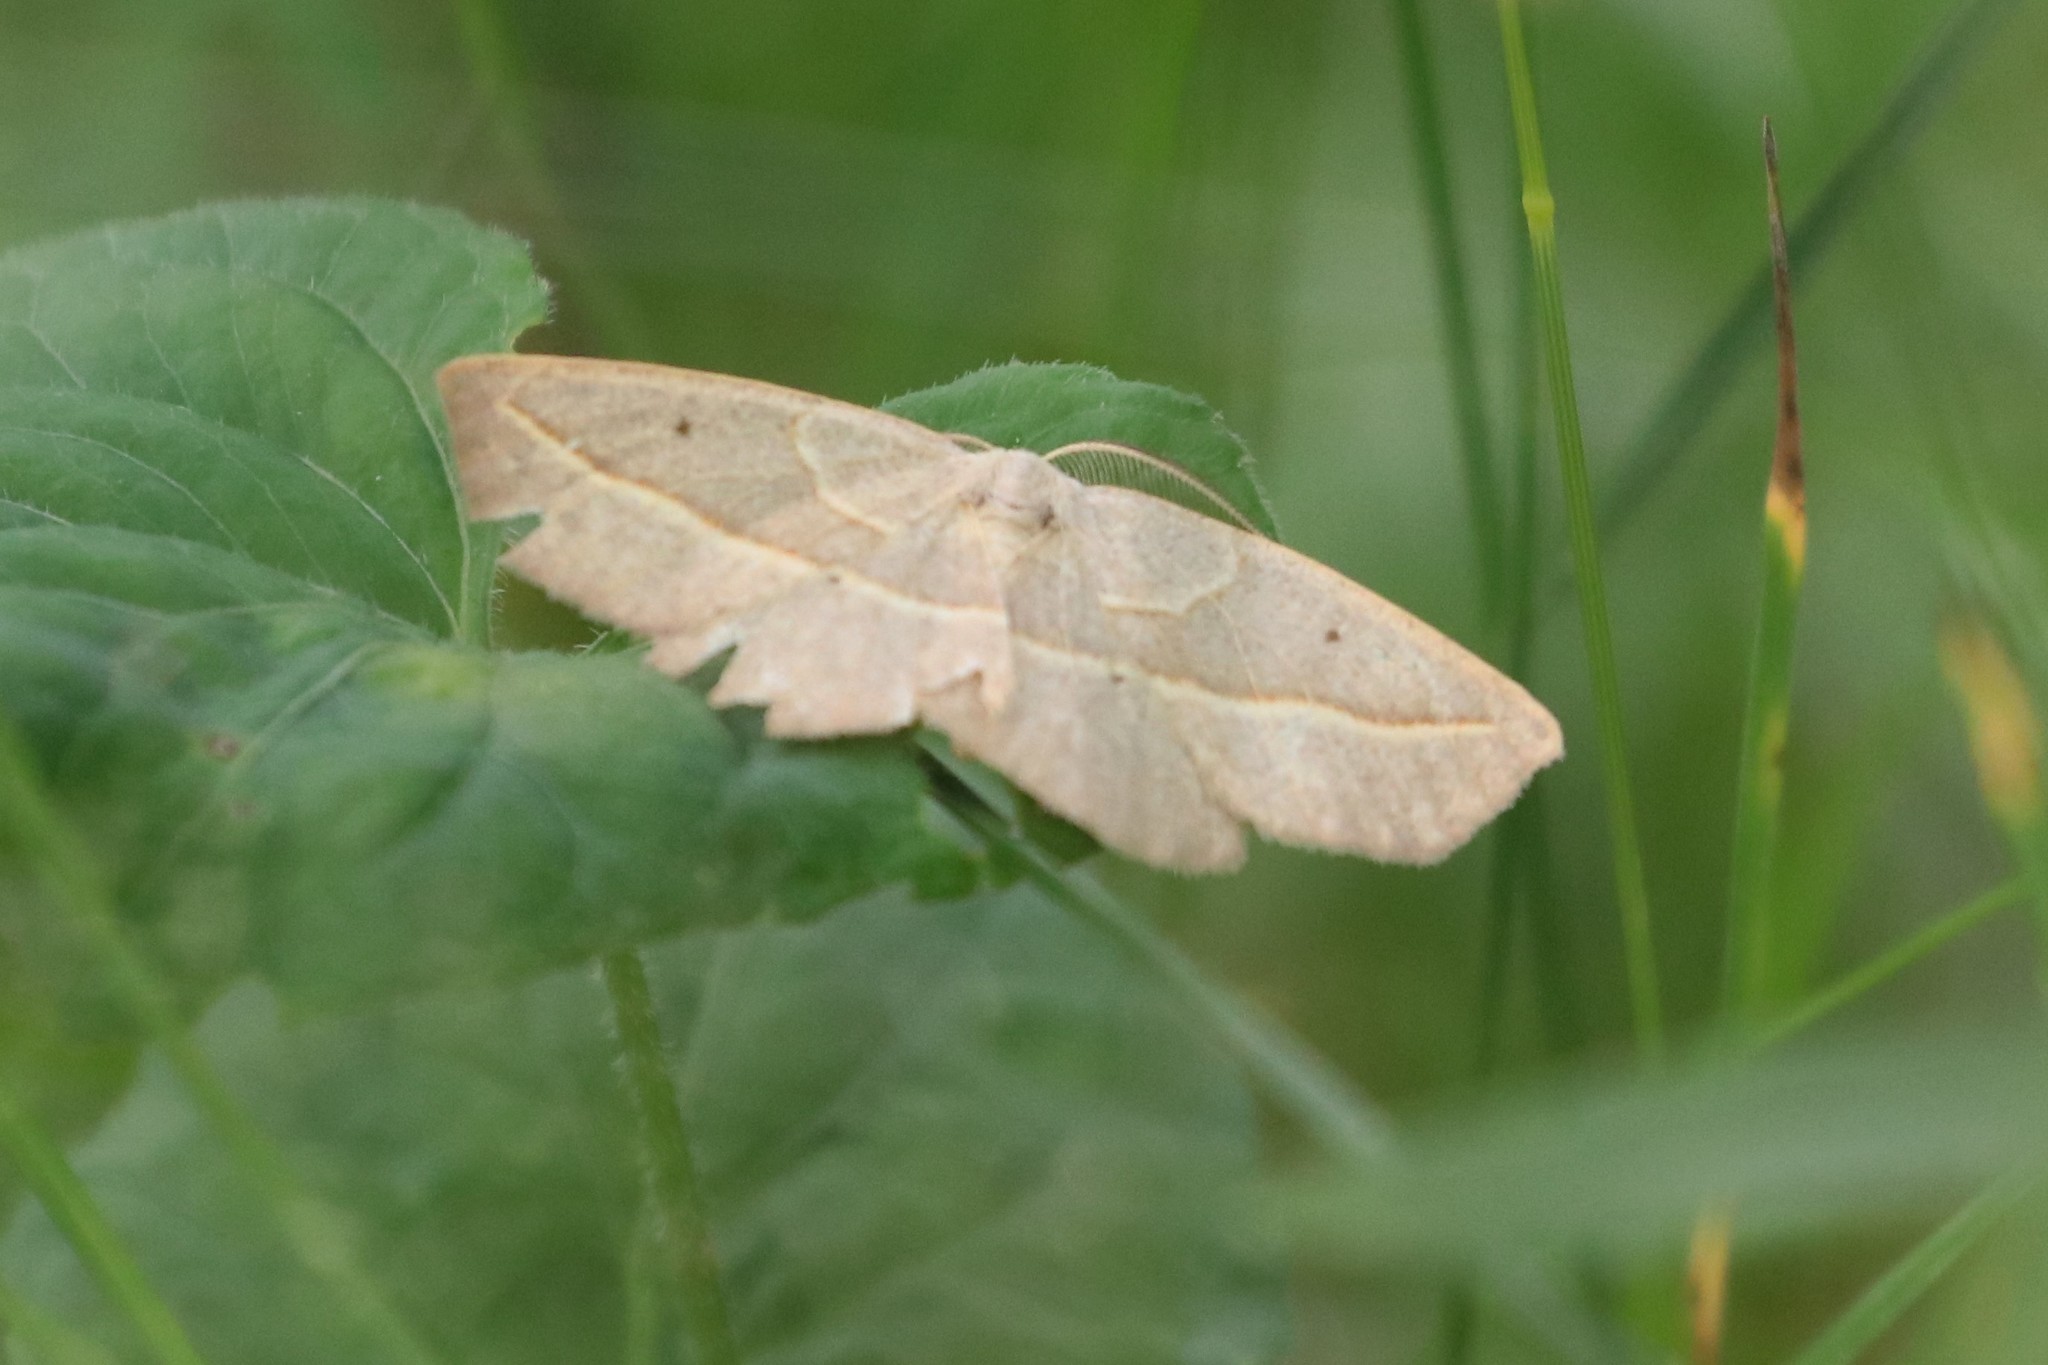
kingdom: Animalia
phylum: Arthropoda
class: Insecta
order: Lepidoptera
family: Geometridae
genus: Eusarca
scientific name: Eusarca confusaria
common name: Confused eusarca
